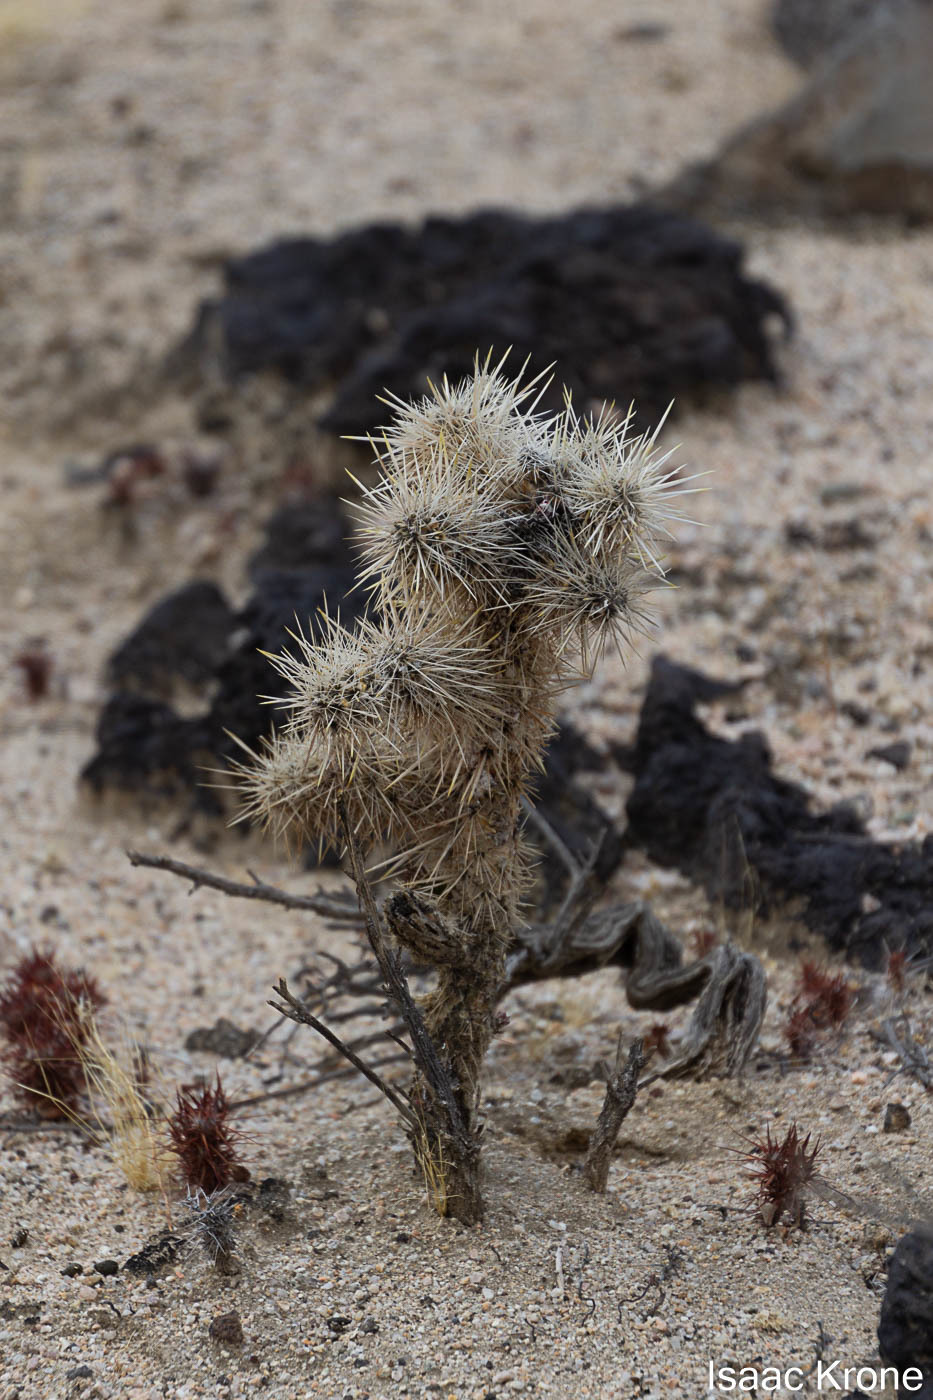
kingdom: Plantae
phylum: Tracheophyta
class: Magnoliopsida
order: Caryophyllales
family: Cactaceae
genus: Cylindropuntia
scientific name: Cylindropuntia echinocarpa
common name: Ground cholla
